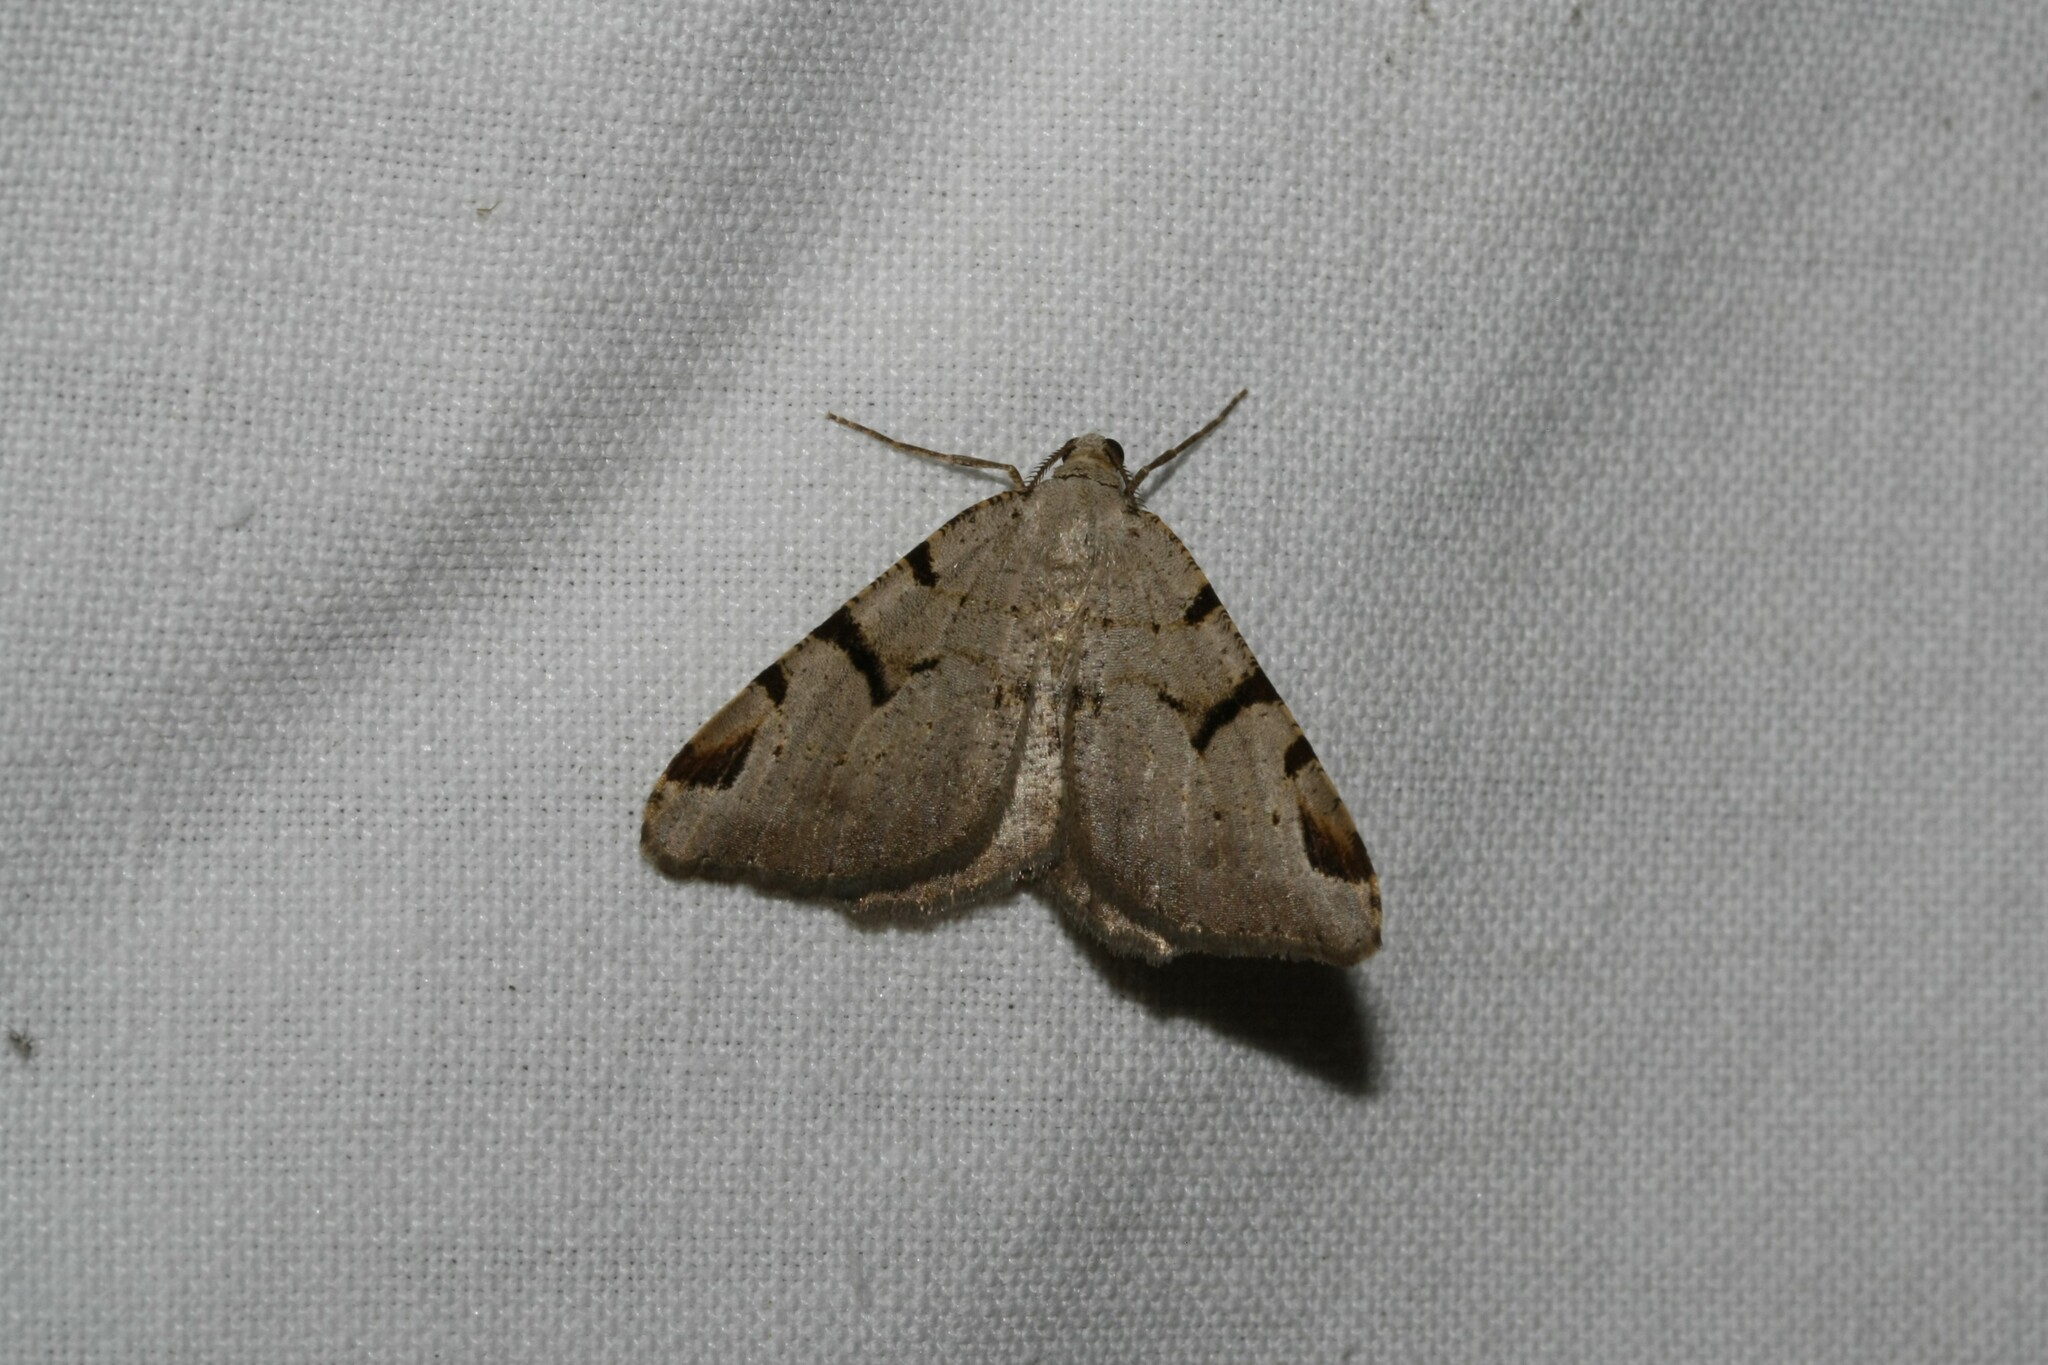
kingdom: Animalia
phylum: Arthropoda
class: Insecta
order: Lepidoptera
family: Geometridae
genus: Macaria
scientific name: Macaria wauaria
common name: V-moth
